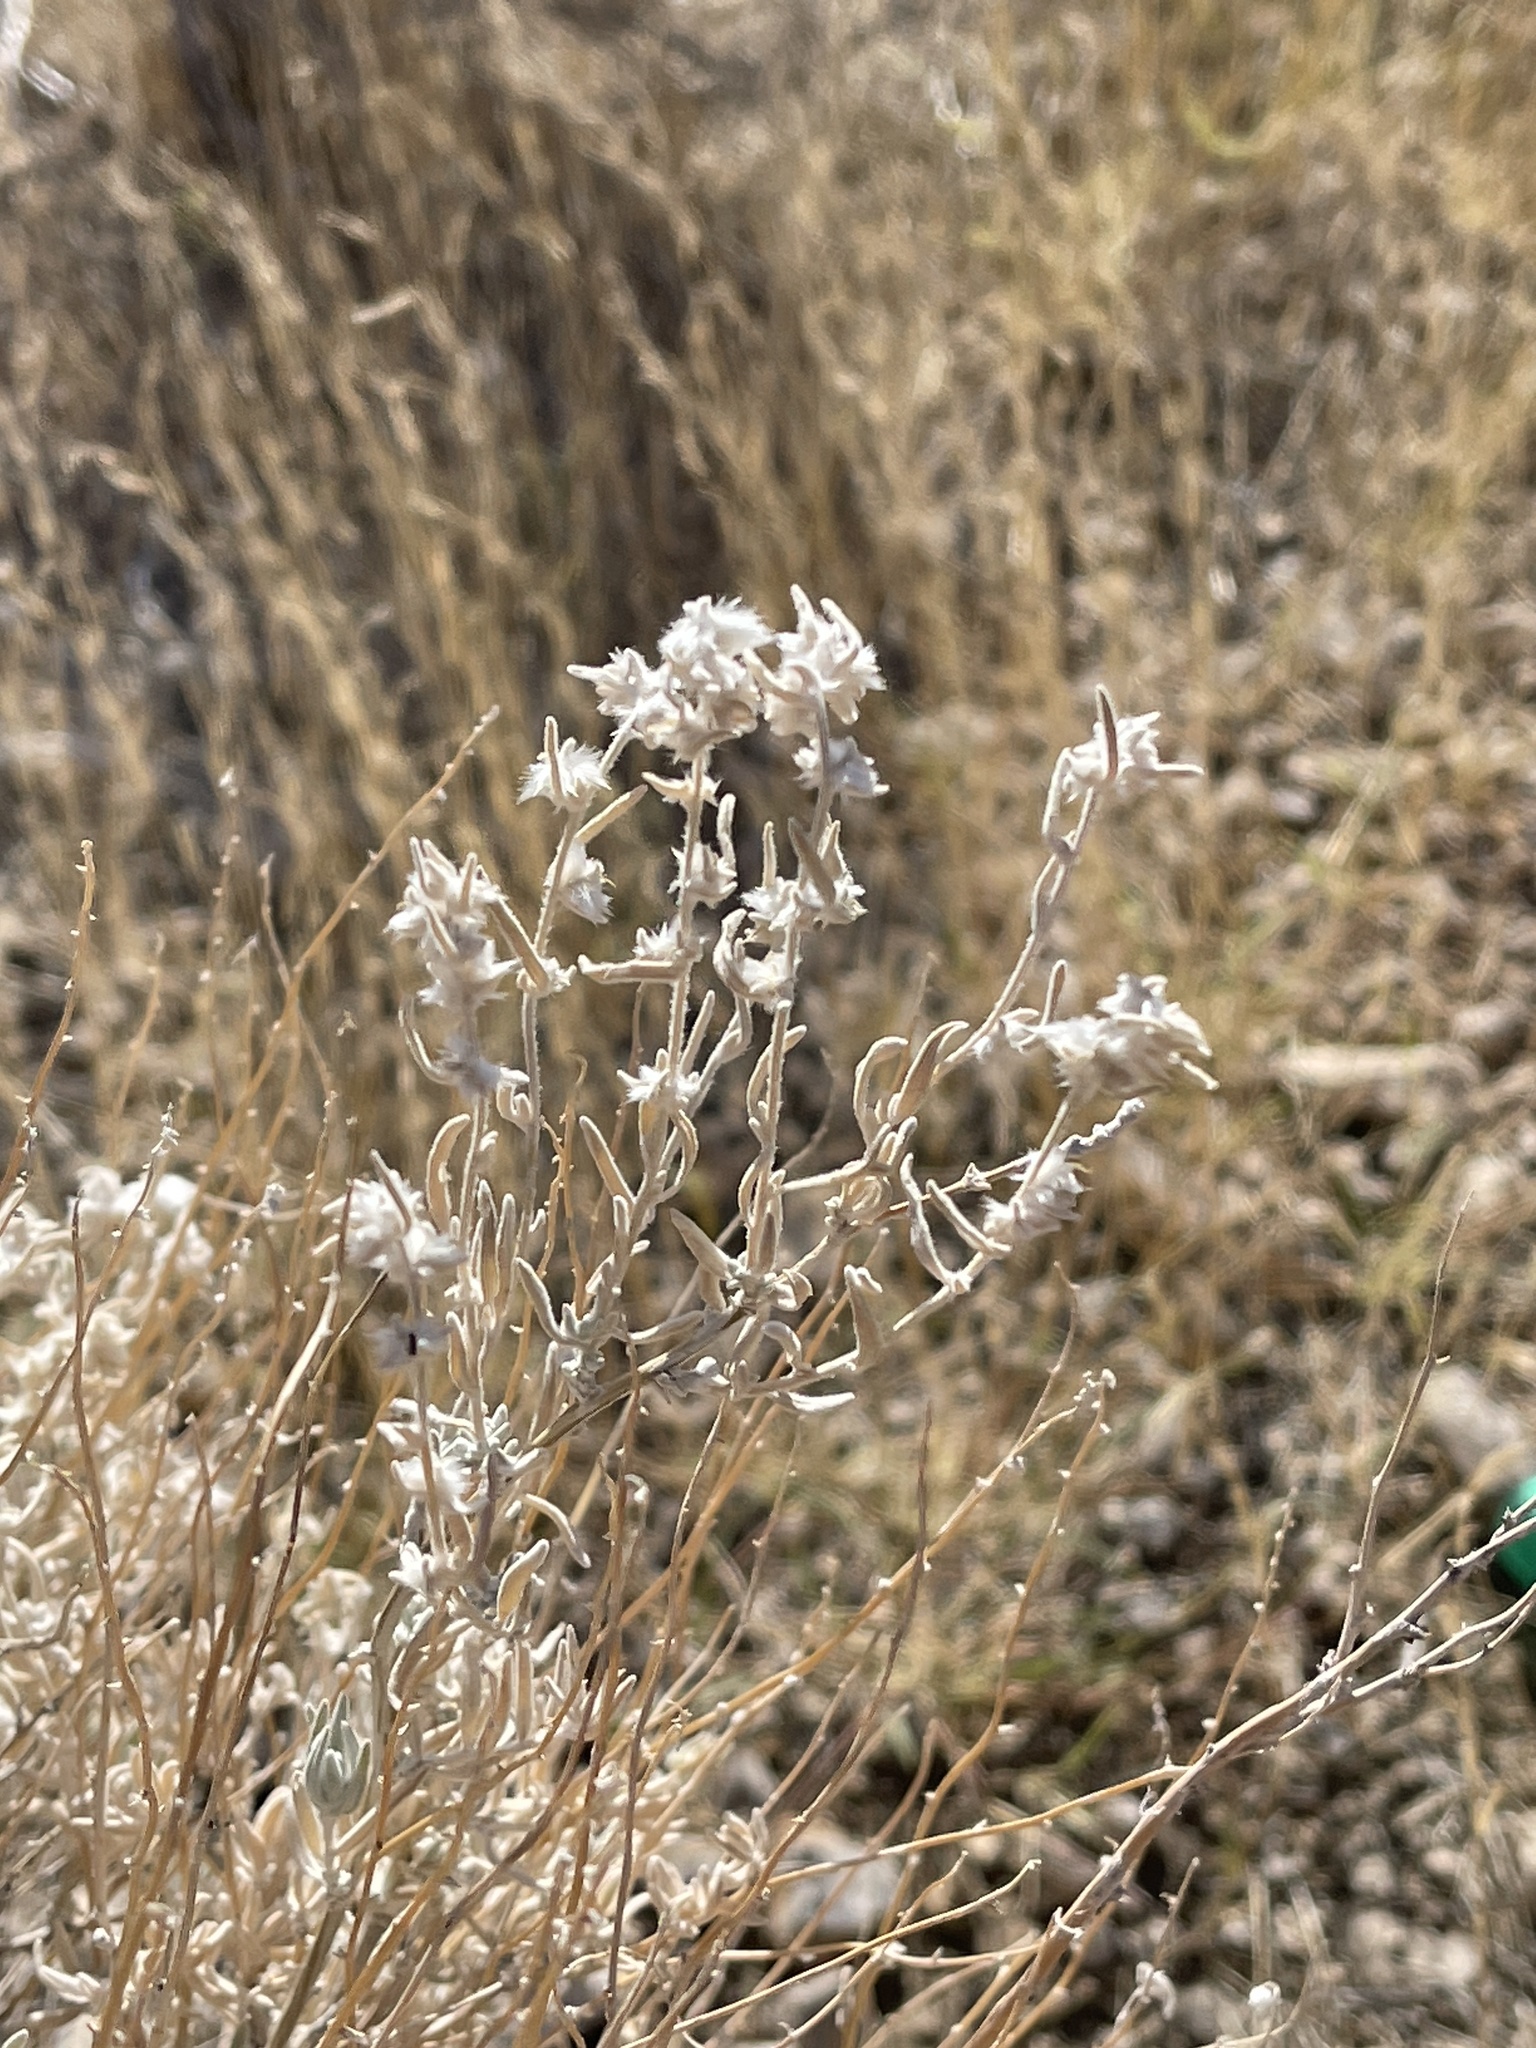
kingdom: Plantae
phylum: Tracheophyta
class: Magnoliopsida
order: Caryophyllales
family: Amaranthaceae
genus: Krascheninnikovia
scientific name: Krascheninnikovia lanata
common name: Winterfat
